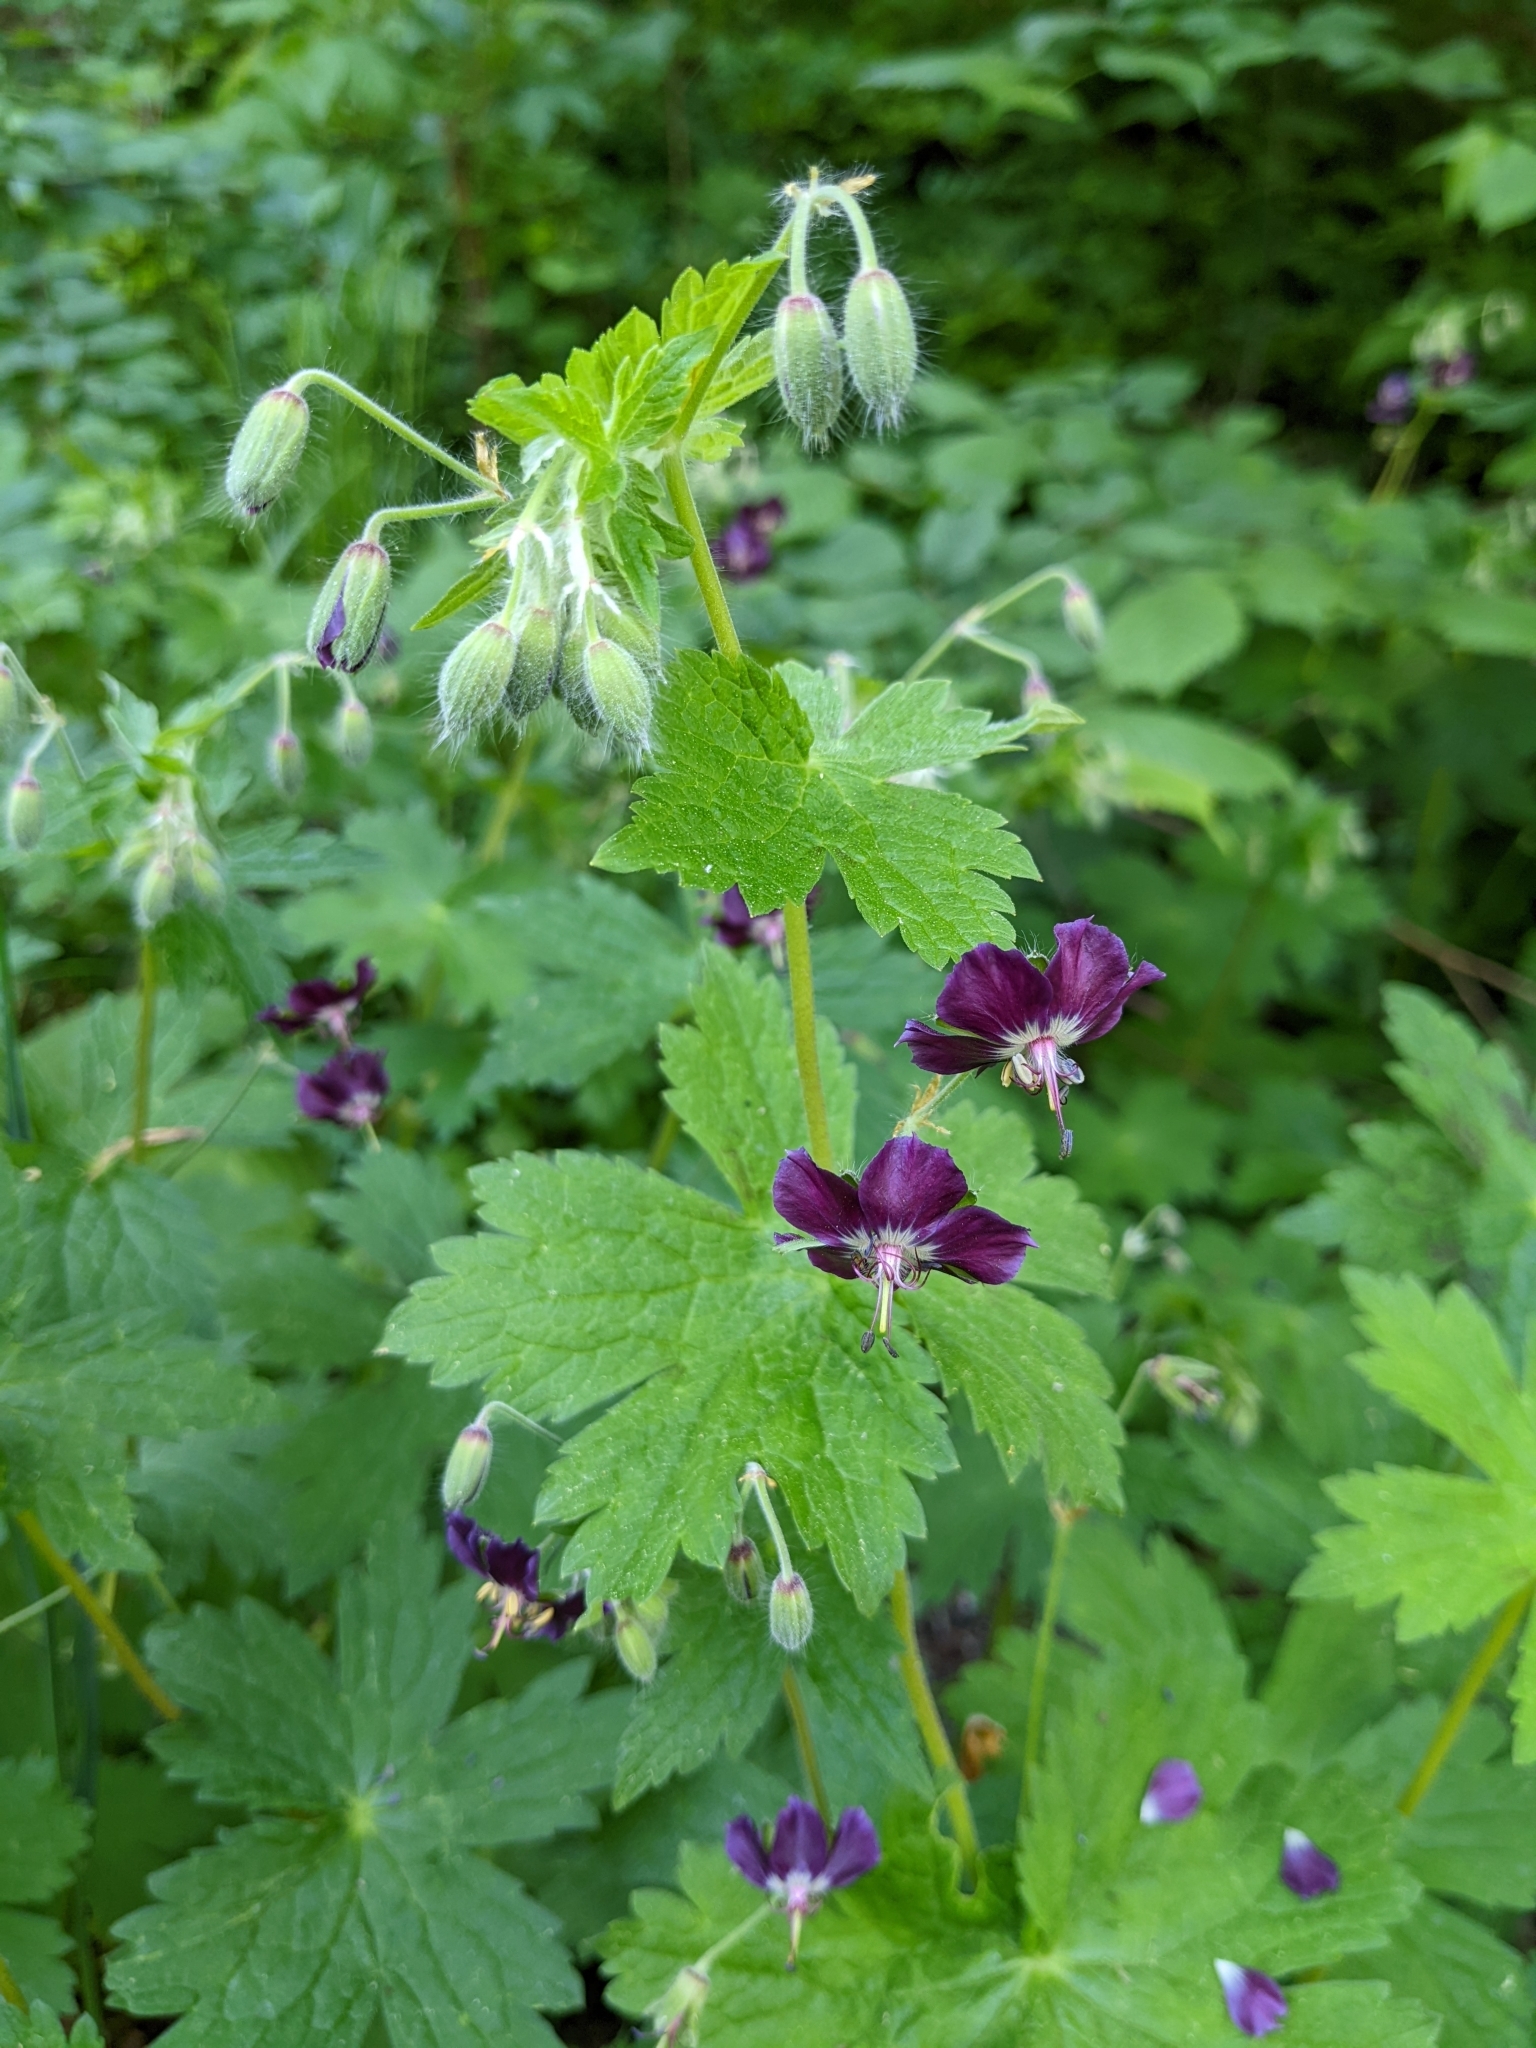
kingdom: Plantae
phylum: Tracheophyta
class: Magnoliopsida
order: Geraniales
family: Geraniaceae
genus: Geranium
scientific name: Geranium phaeum
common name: Dusky crane's-bill
